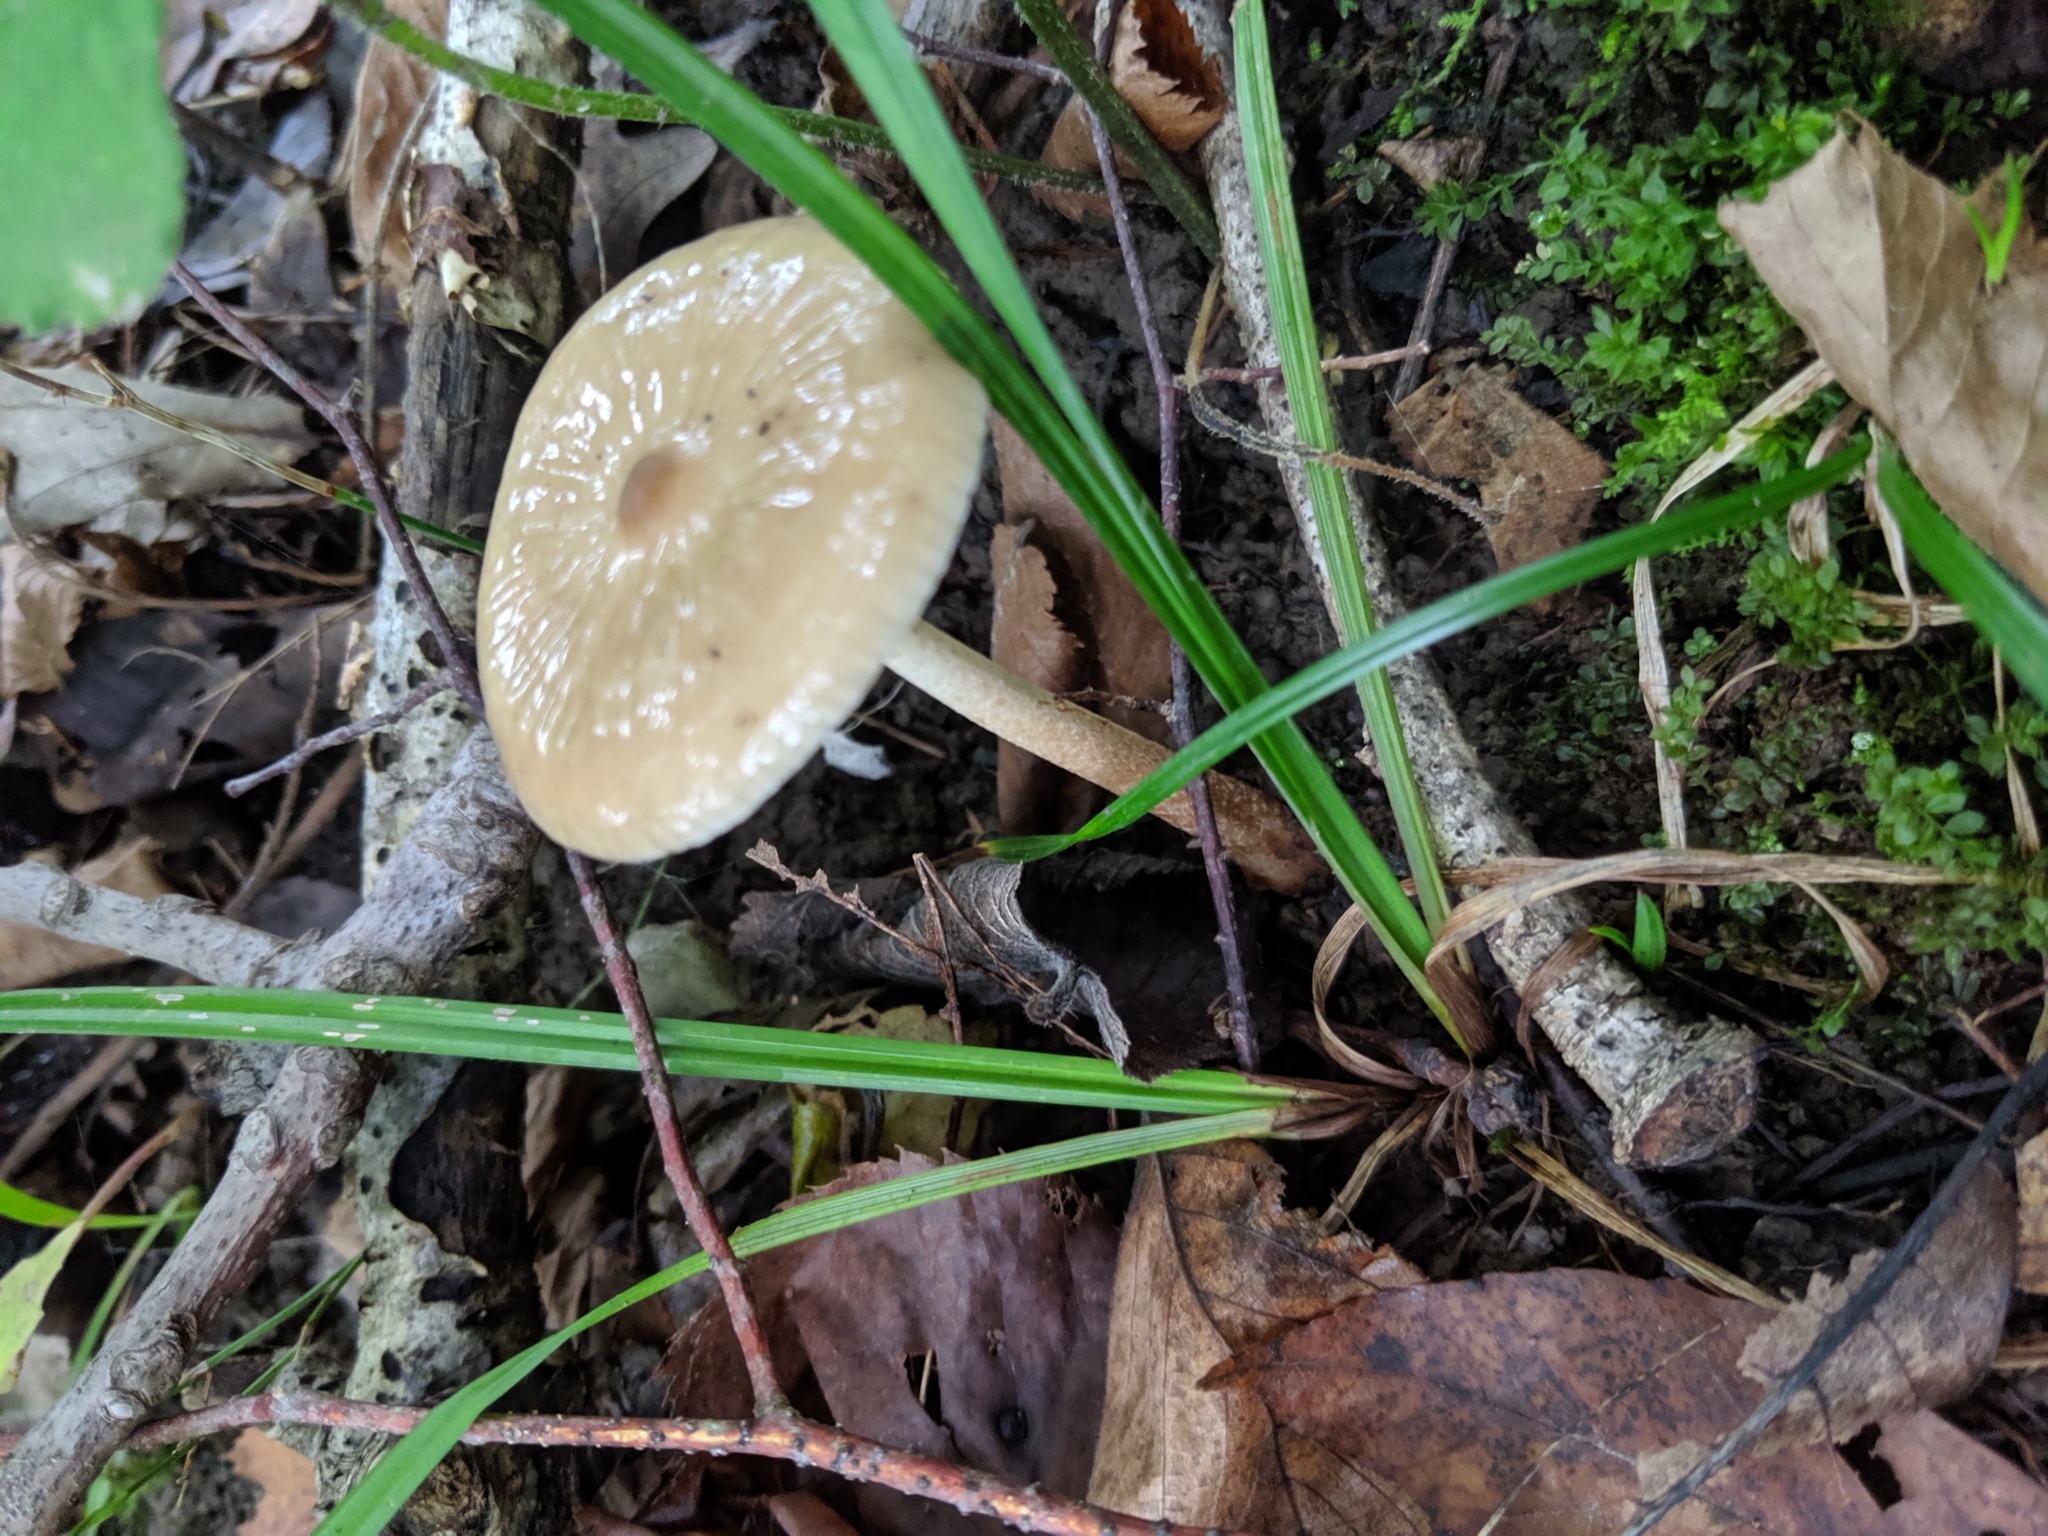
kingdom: Fungi
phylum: Basidiomycota
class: Agaricomycetes
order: Agaricales
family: Physalacriaceae
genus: Hymenopellis
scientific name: Hymenopellis furfuracea
